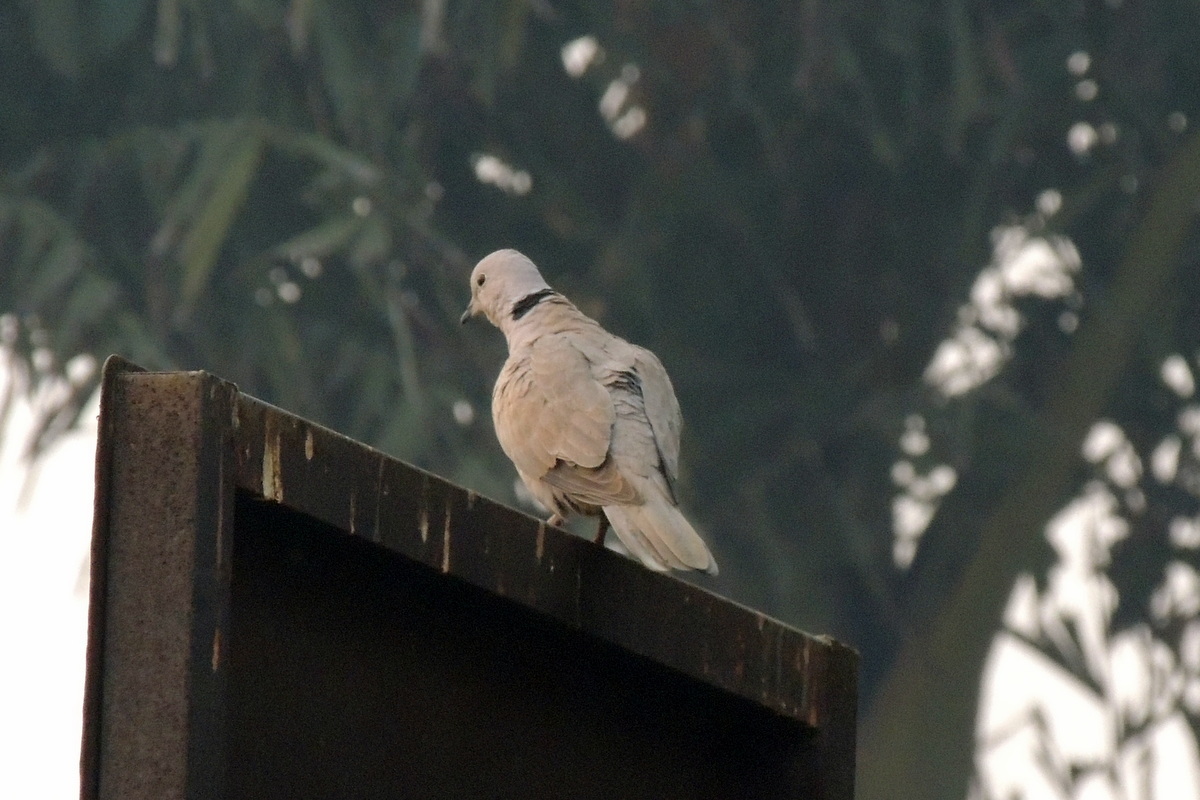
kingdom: Animalia
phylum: Chordata
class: Aves
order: Columbiformes
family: Columbidae
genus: Streptopelia
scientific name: Streptopelia decaocto
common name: Eurasian collared dove
